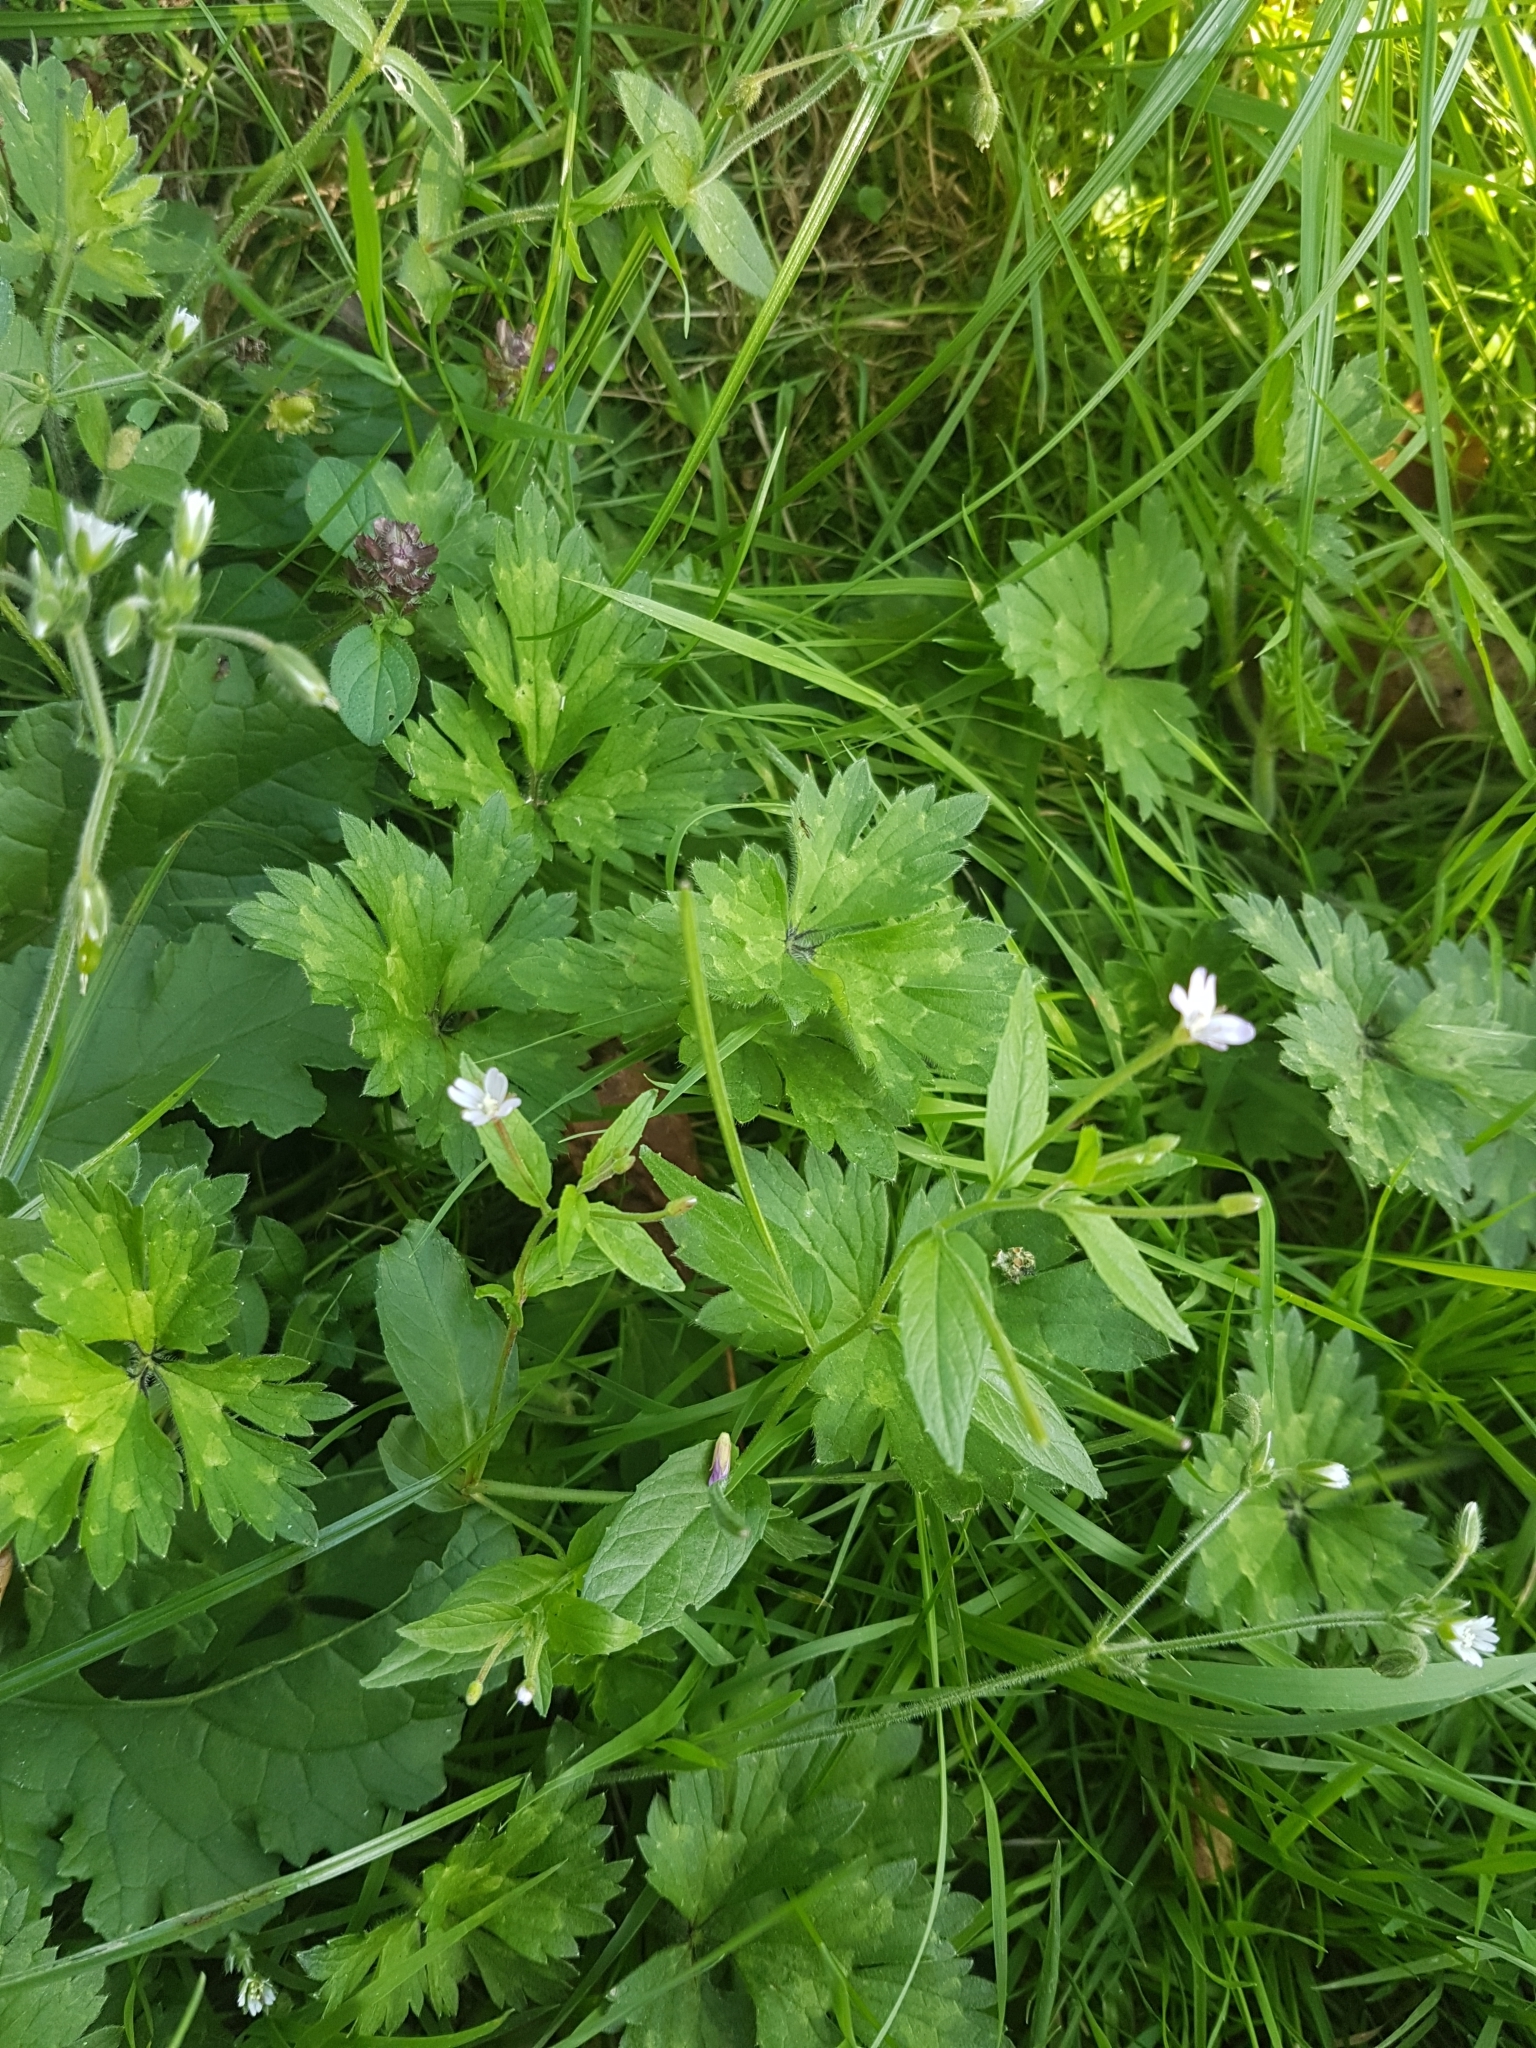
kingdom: Plantae
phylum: Tracheophyta
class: Magnoliopsida
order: Myrtales
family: Onagraceae
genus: Epilobium
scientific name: Epilobium ciliatum
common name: American willowherb
